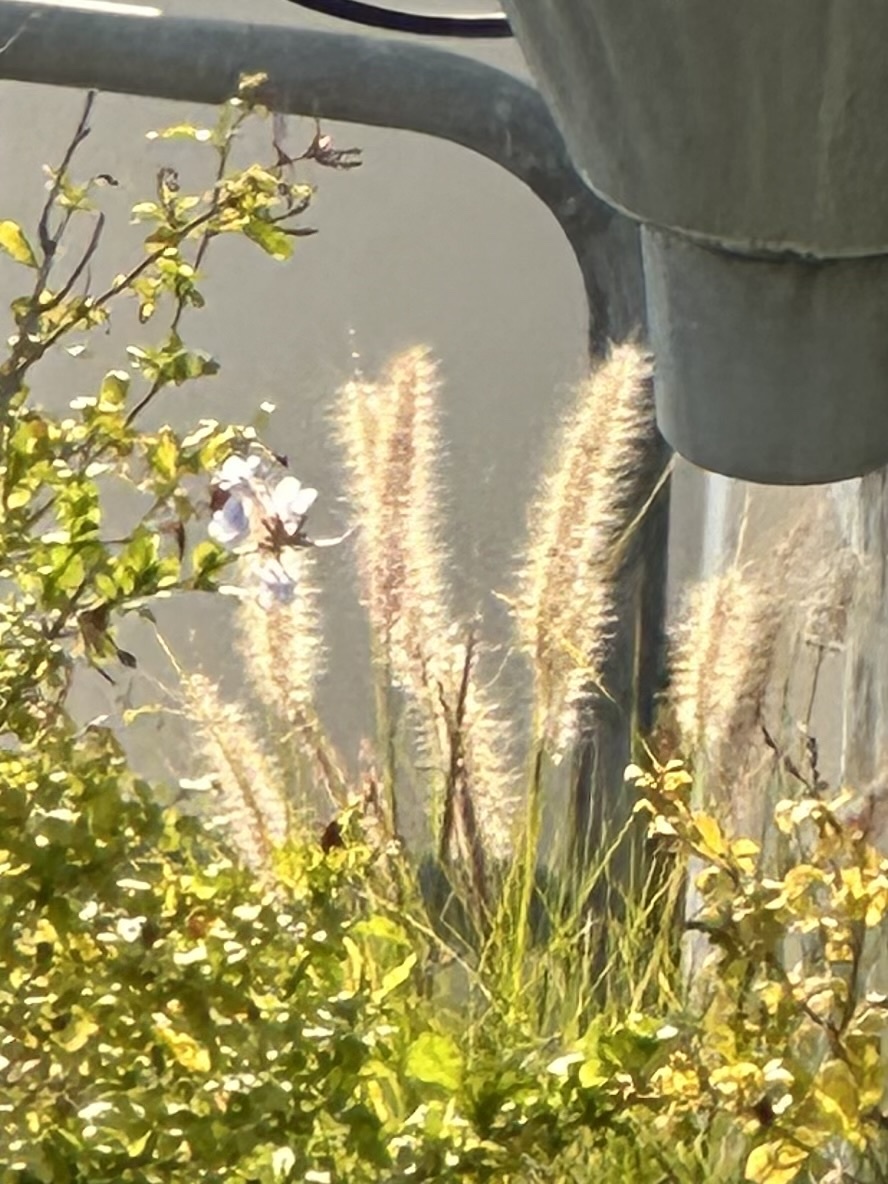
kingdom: Plantae
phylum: Tracheophyta
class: Liliopsida
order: Poales
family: Poaceae
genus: Cenchrus
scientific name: Cenchrus setaceus
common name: Crimson fountaingrass
